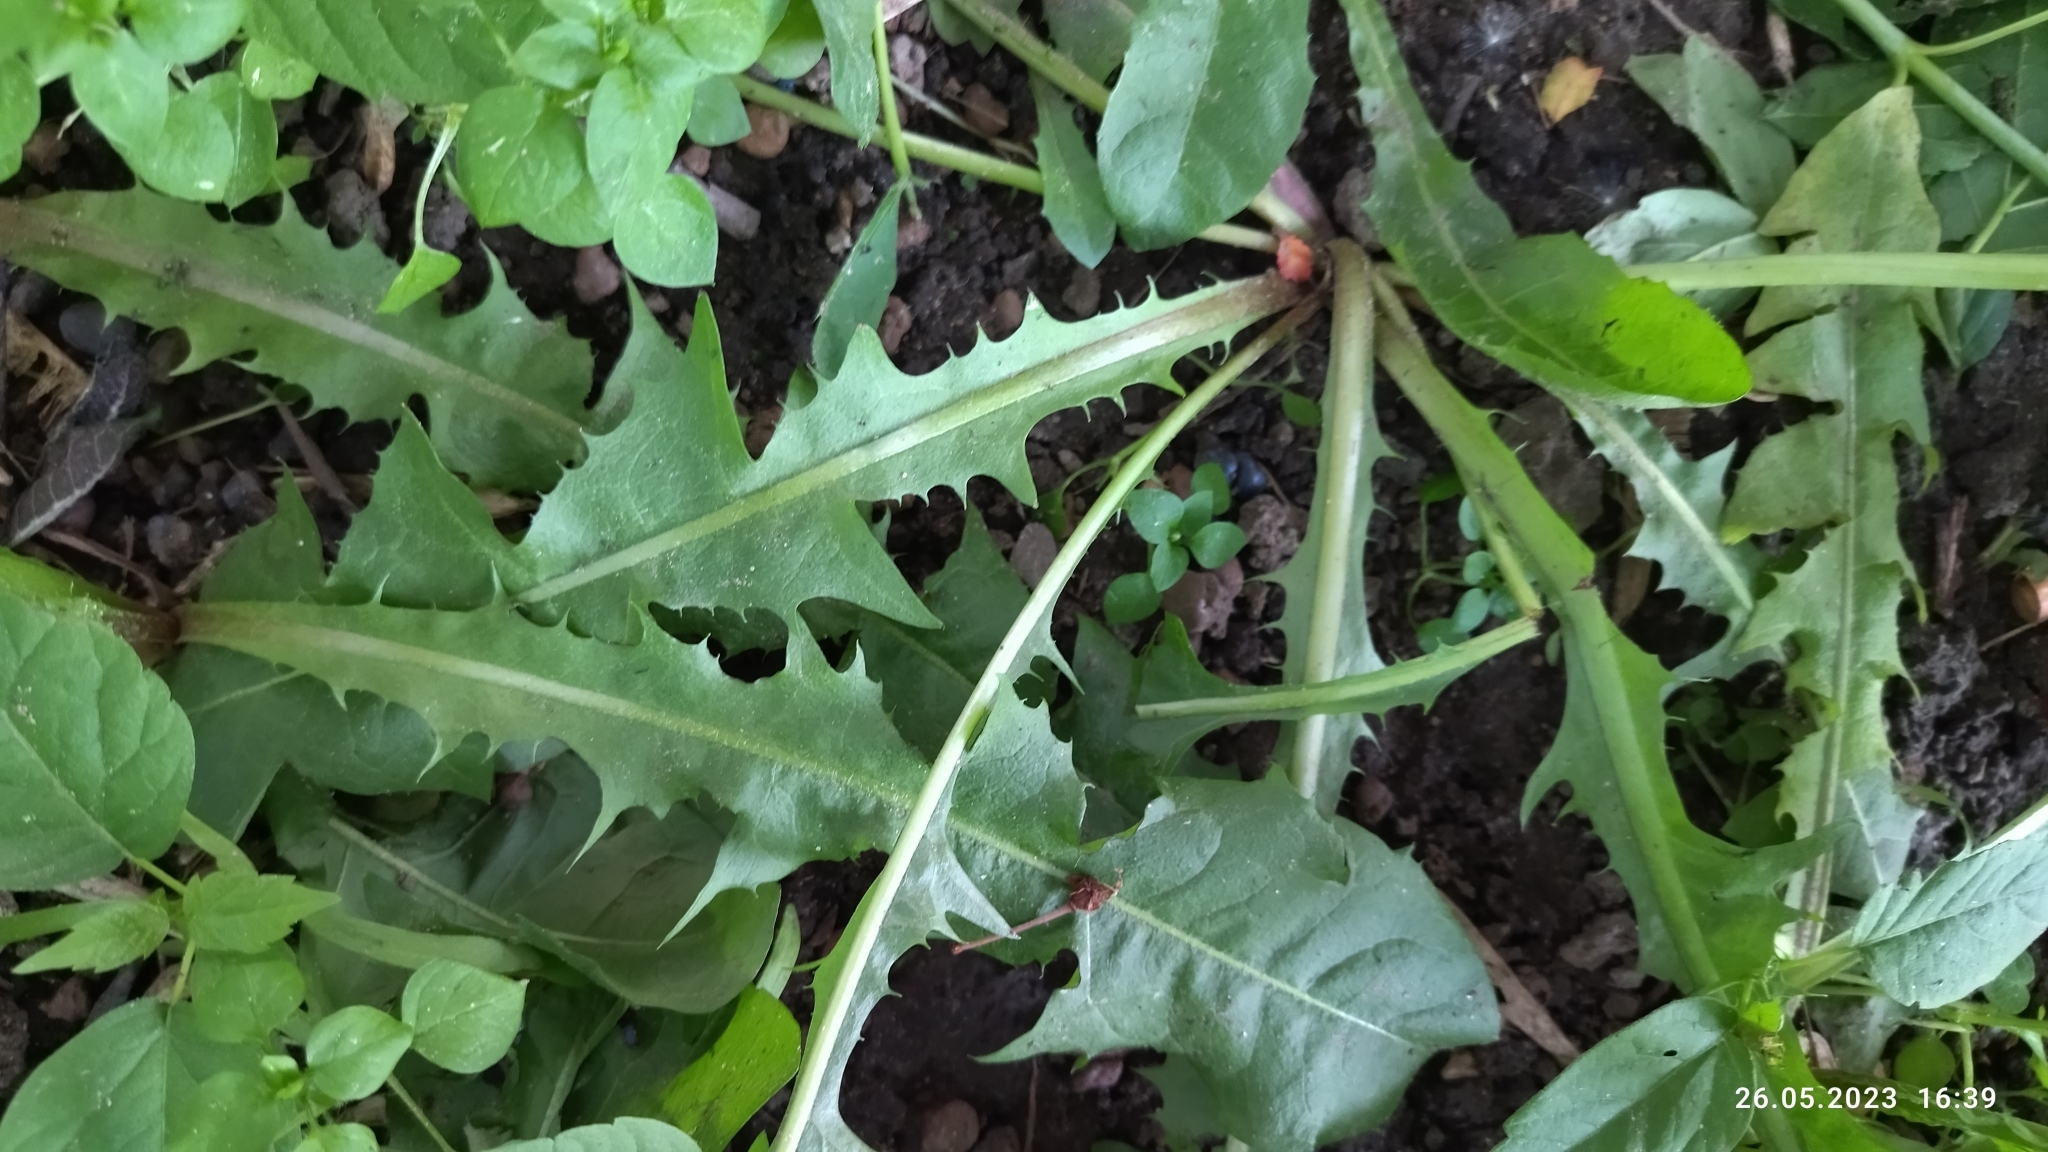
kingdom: Plantae
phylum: Tracheophyta
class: Magnoliopsida
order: Asterales
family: Asteraceae
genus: Taraxacum
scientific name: Taraxacum officinale
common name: Common dandelion
